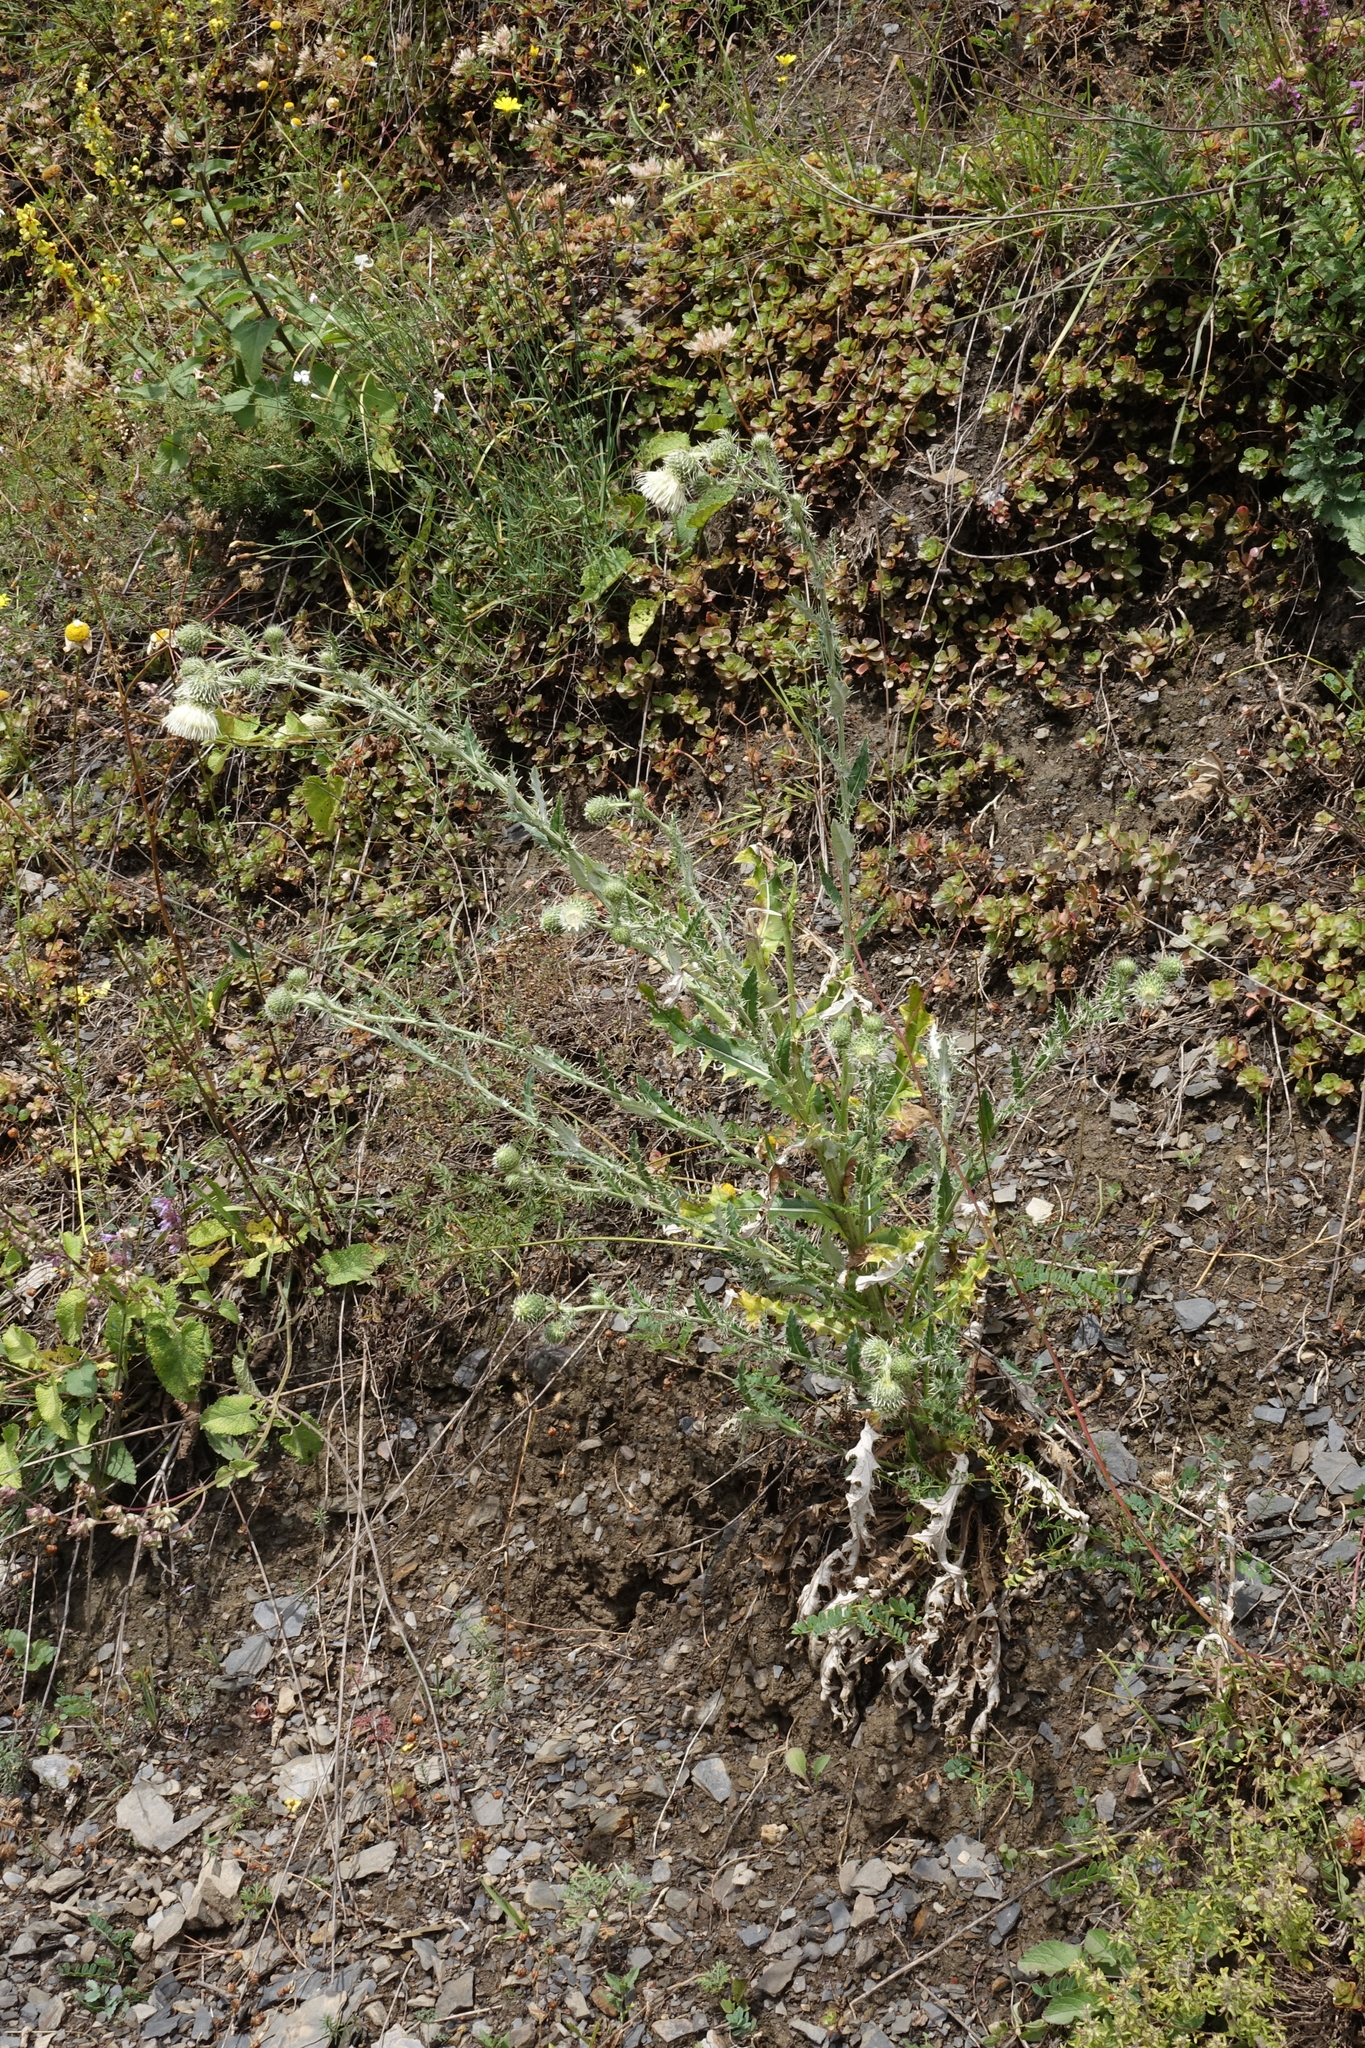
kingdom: Plantae
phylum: Tracheophyta
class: Magnoliopsida
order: Asterales
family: Asteraceae
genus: Cirsium
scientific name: Cirsium echinus
